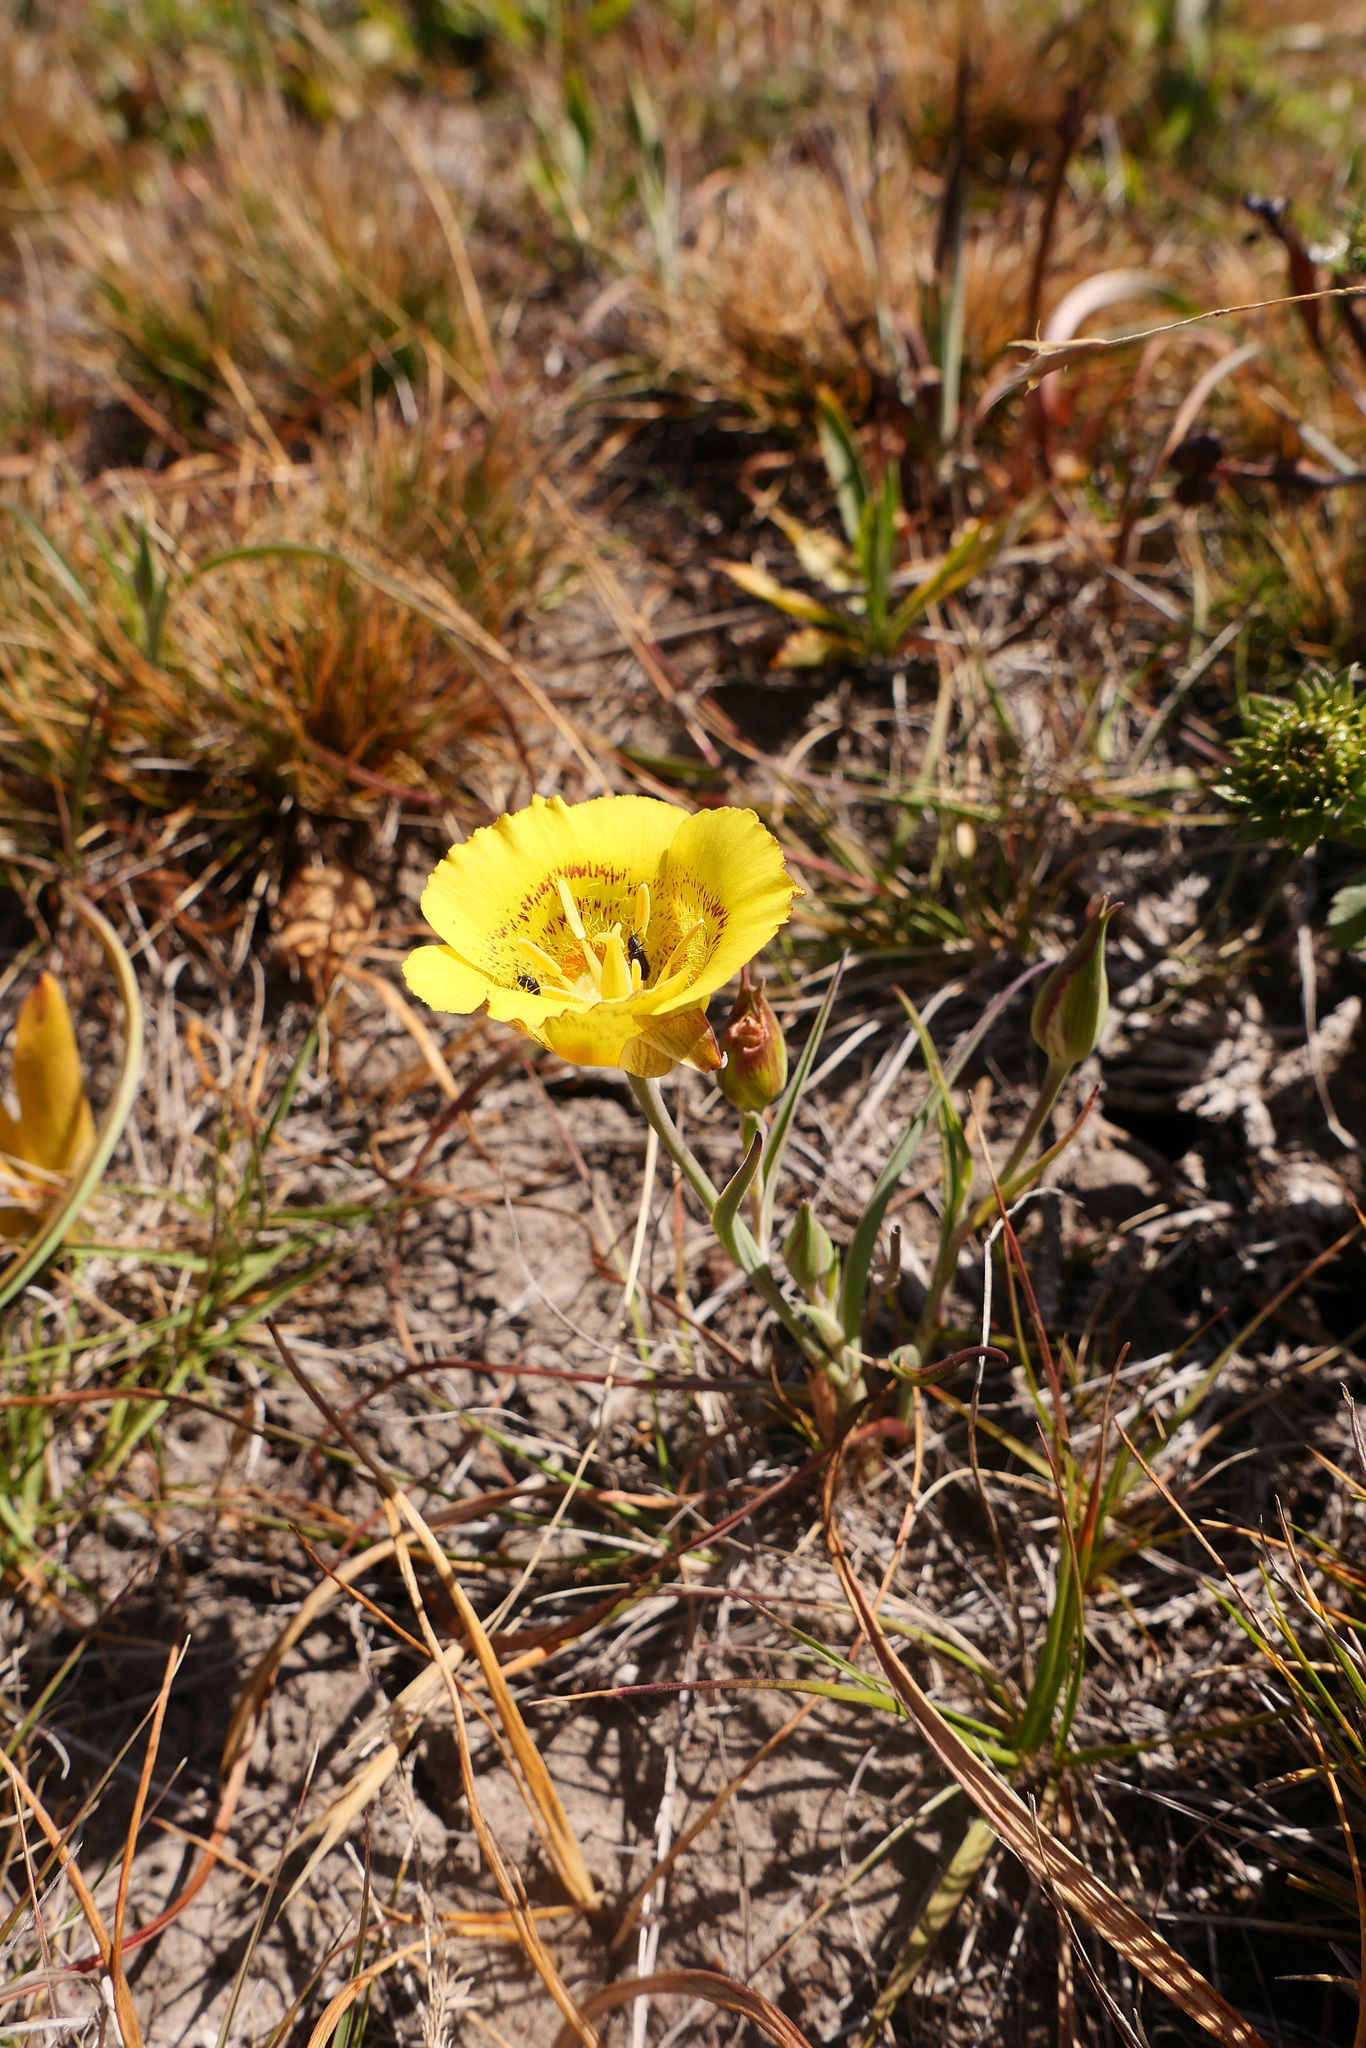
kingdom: Plantae
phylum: Tracheophyta
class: Liliopsida
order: Liliales
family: Liliaceae
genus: Calochortus
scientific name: Calochortus luteus
